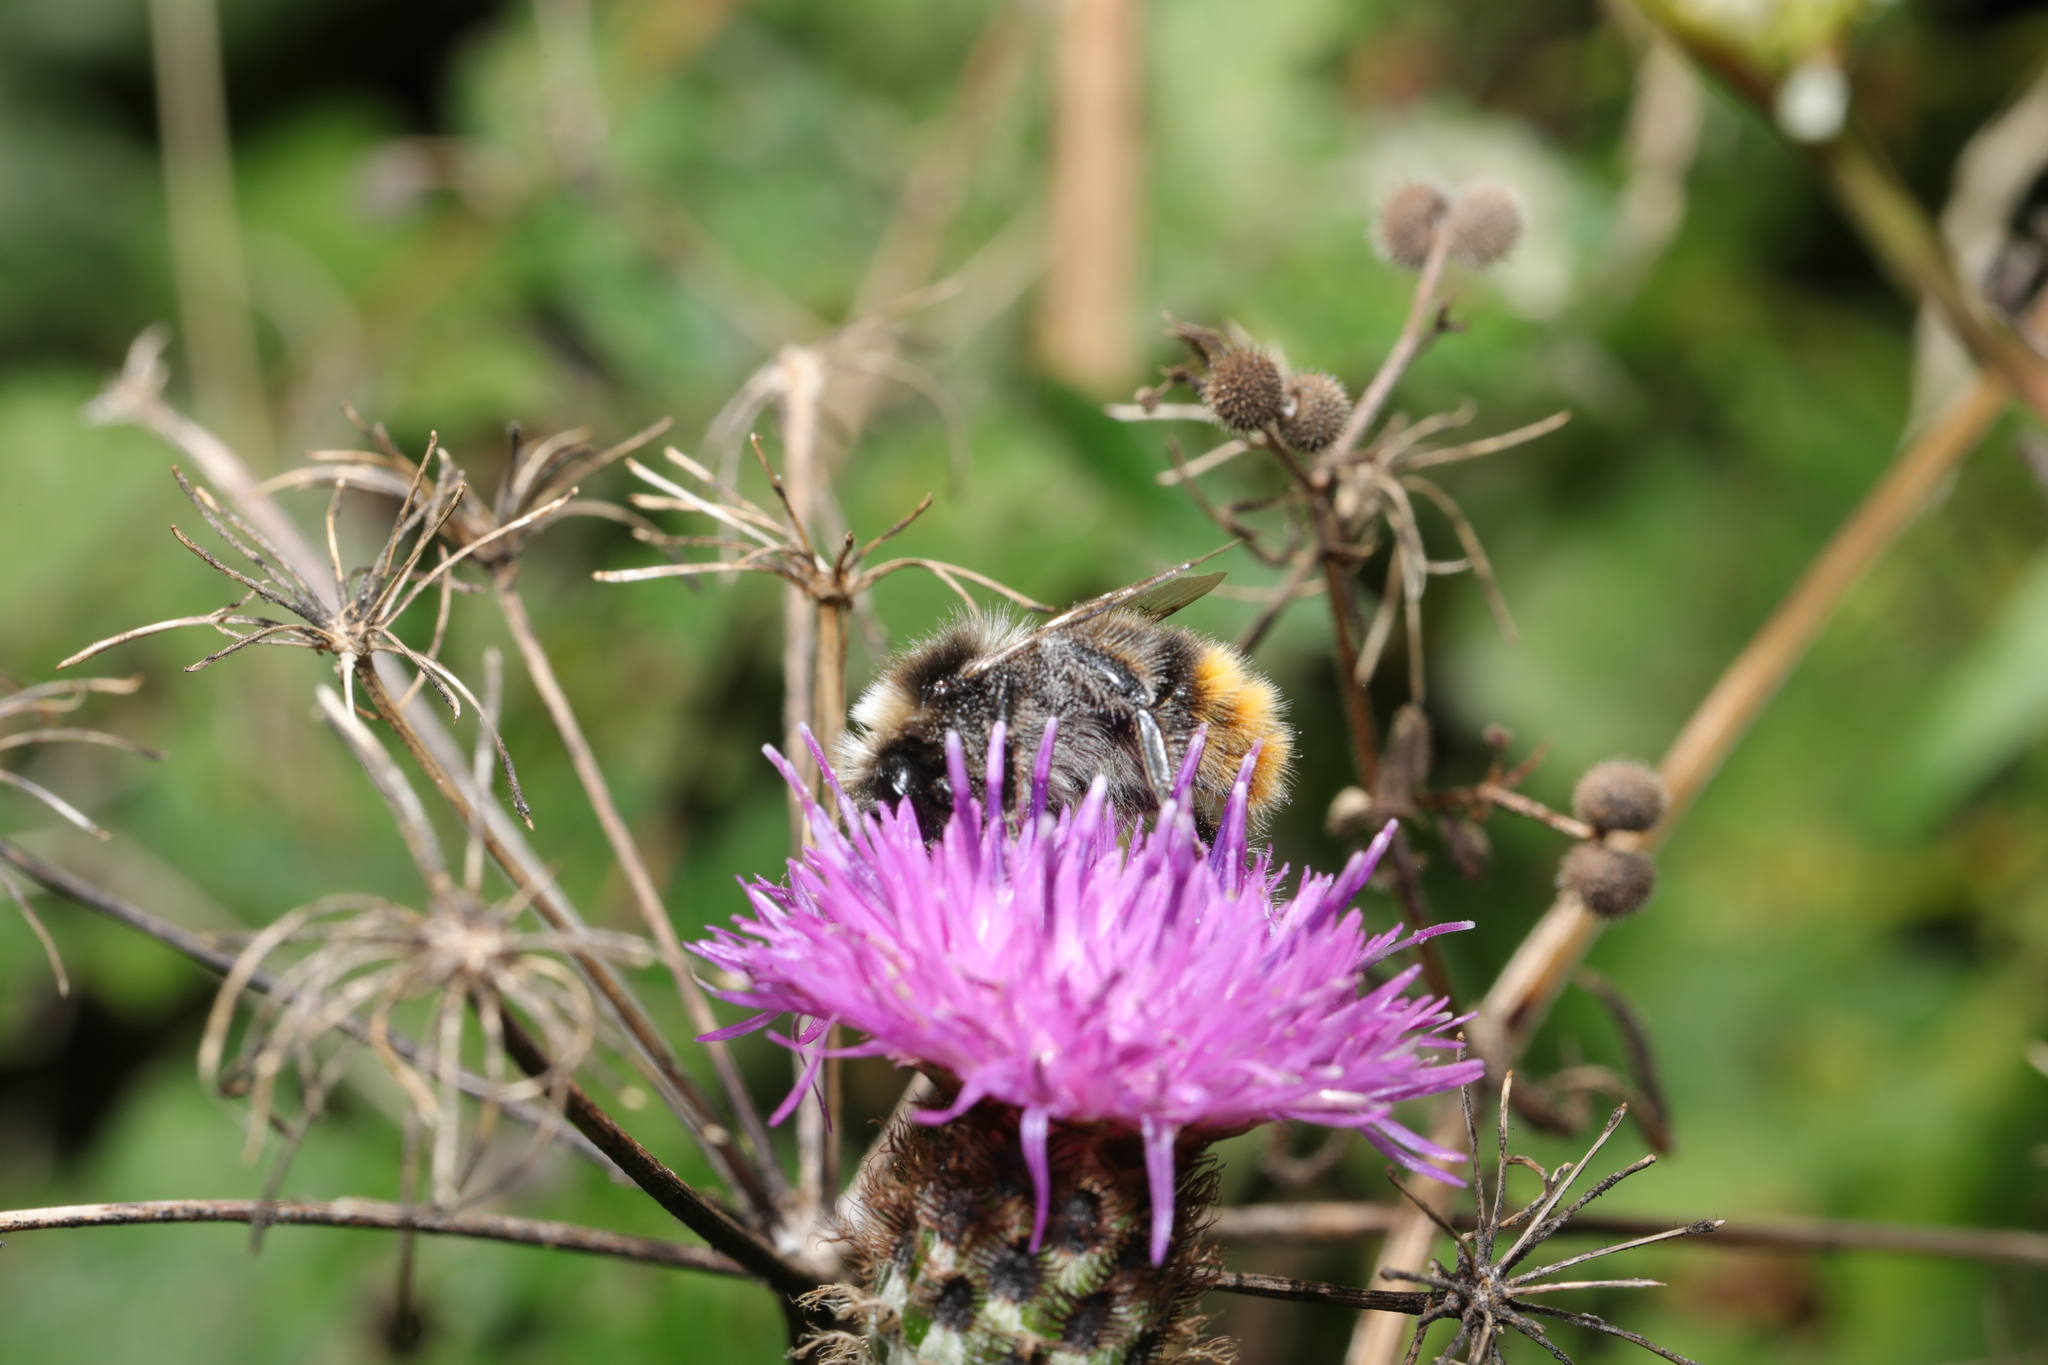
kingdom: Animalia
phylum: Arthropoda
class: Insecta
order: Hymenoptera
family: Apidae
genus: Bombus
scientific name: Bombus lapidarius
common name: Large red-tailed humble-bee
